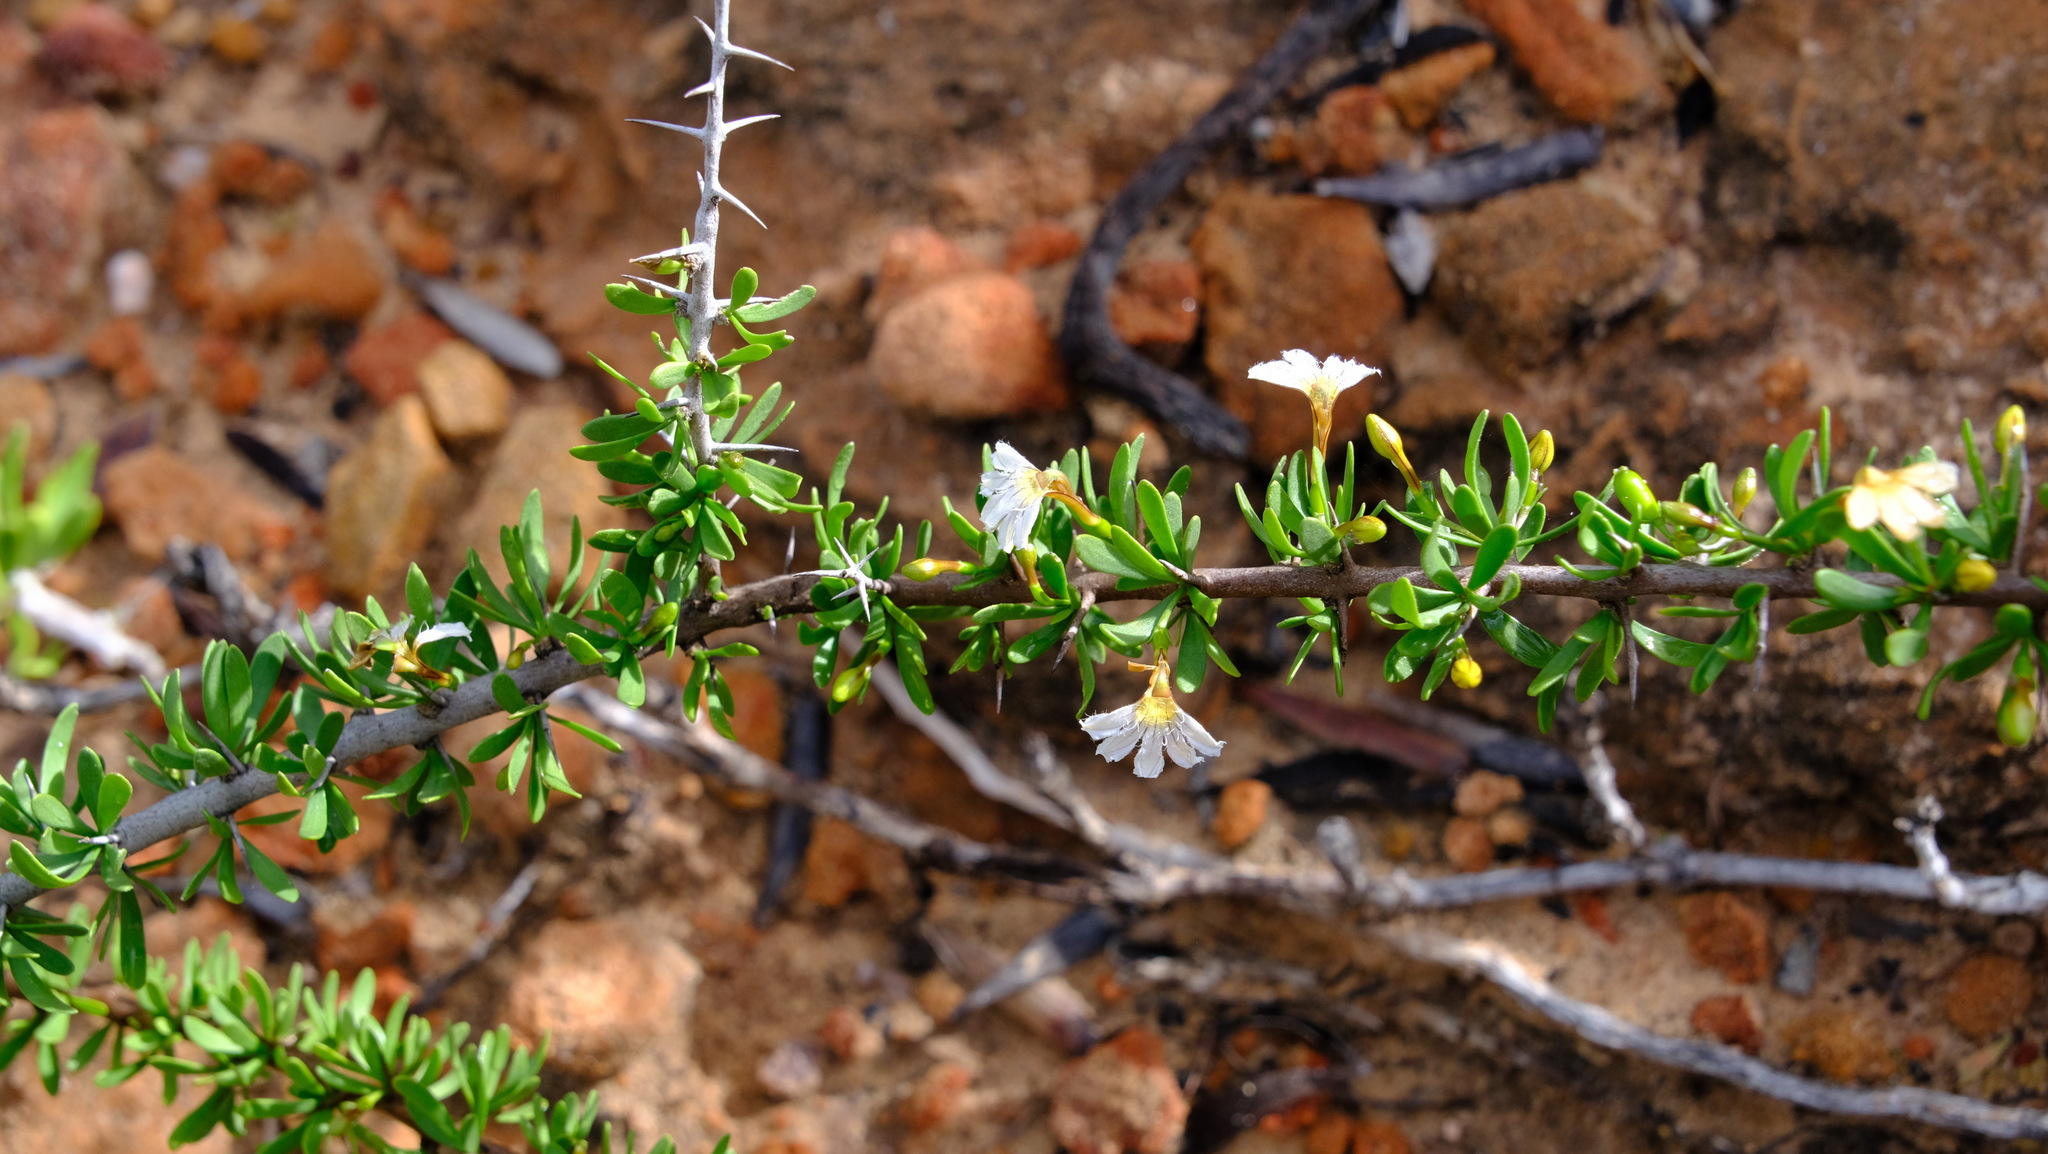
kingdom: Plantae
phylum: Tracheophyta
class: Magnoliopsida
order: Asterales
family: Goodeniaceae
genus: Scaevola
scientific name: Scaevola spinescens
